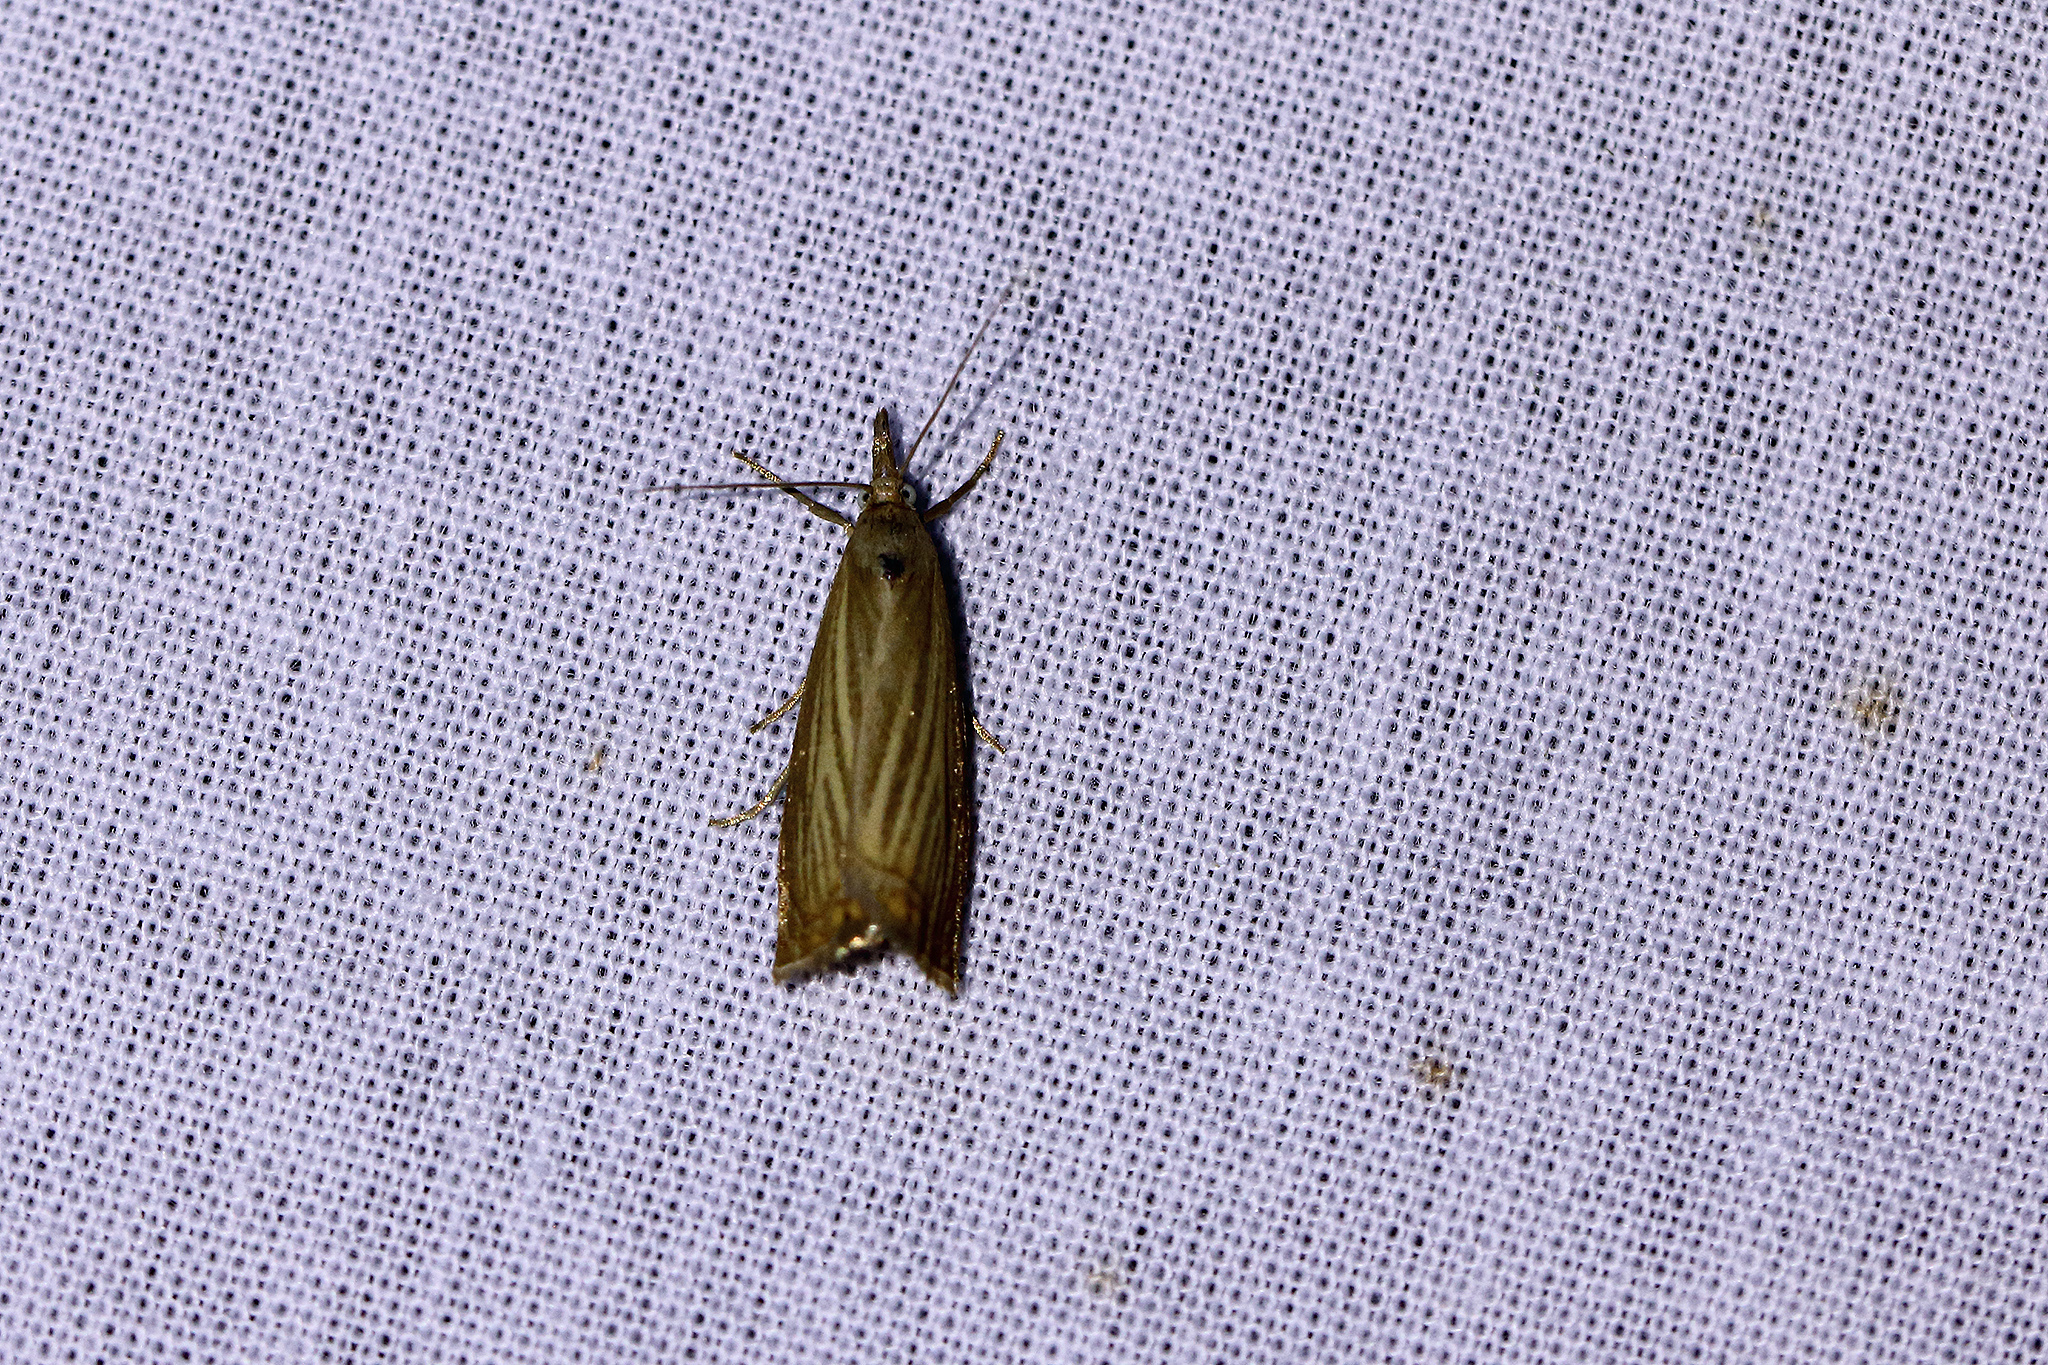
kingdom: Animalia
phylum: Arthropoda
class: Insecta
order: Lepidoptera
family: Crambidae
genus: Chrysoteuchia
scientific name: Chrysoteuchia culmella
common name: Garden grass-veneer
